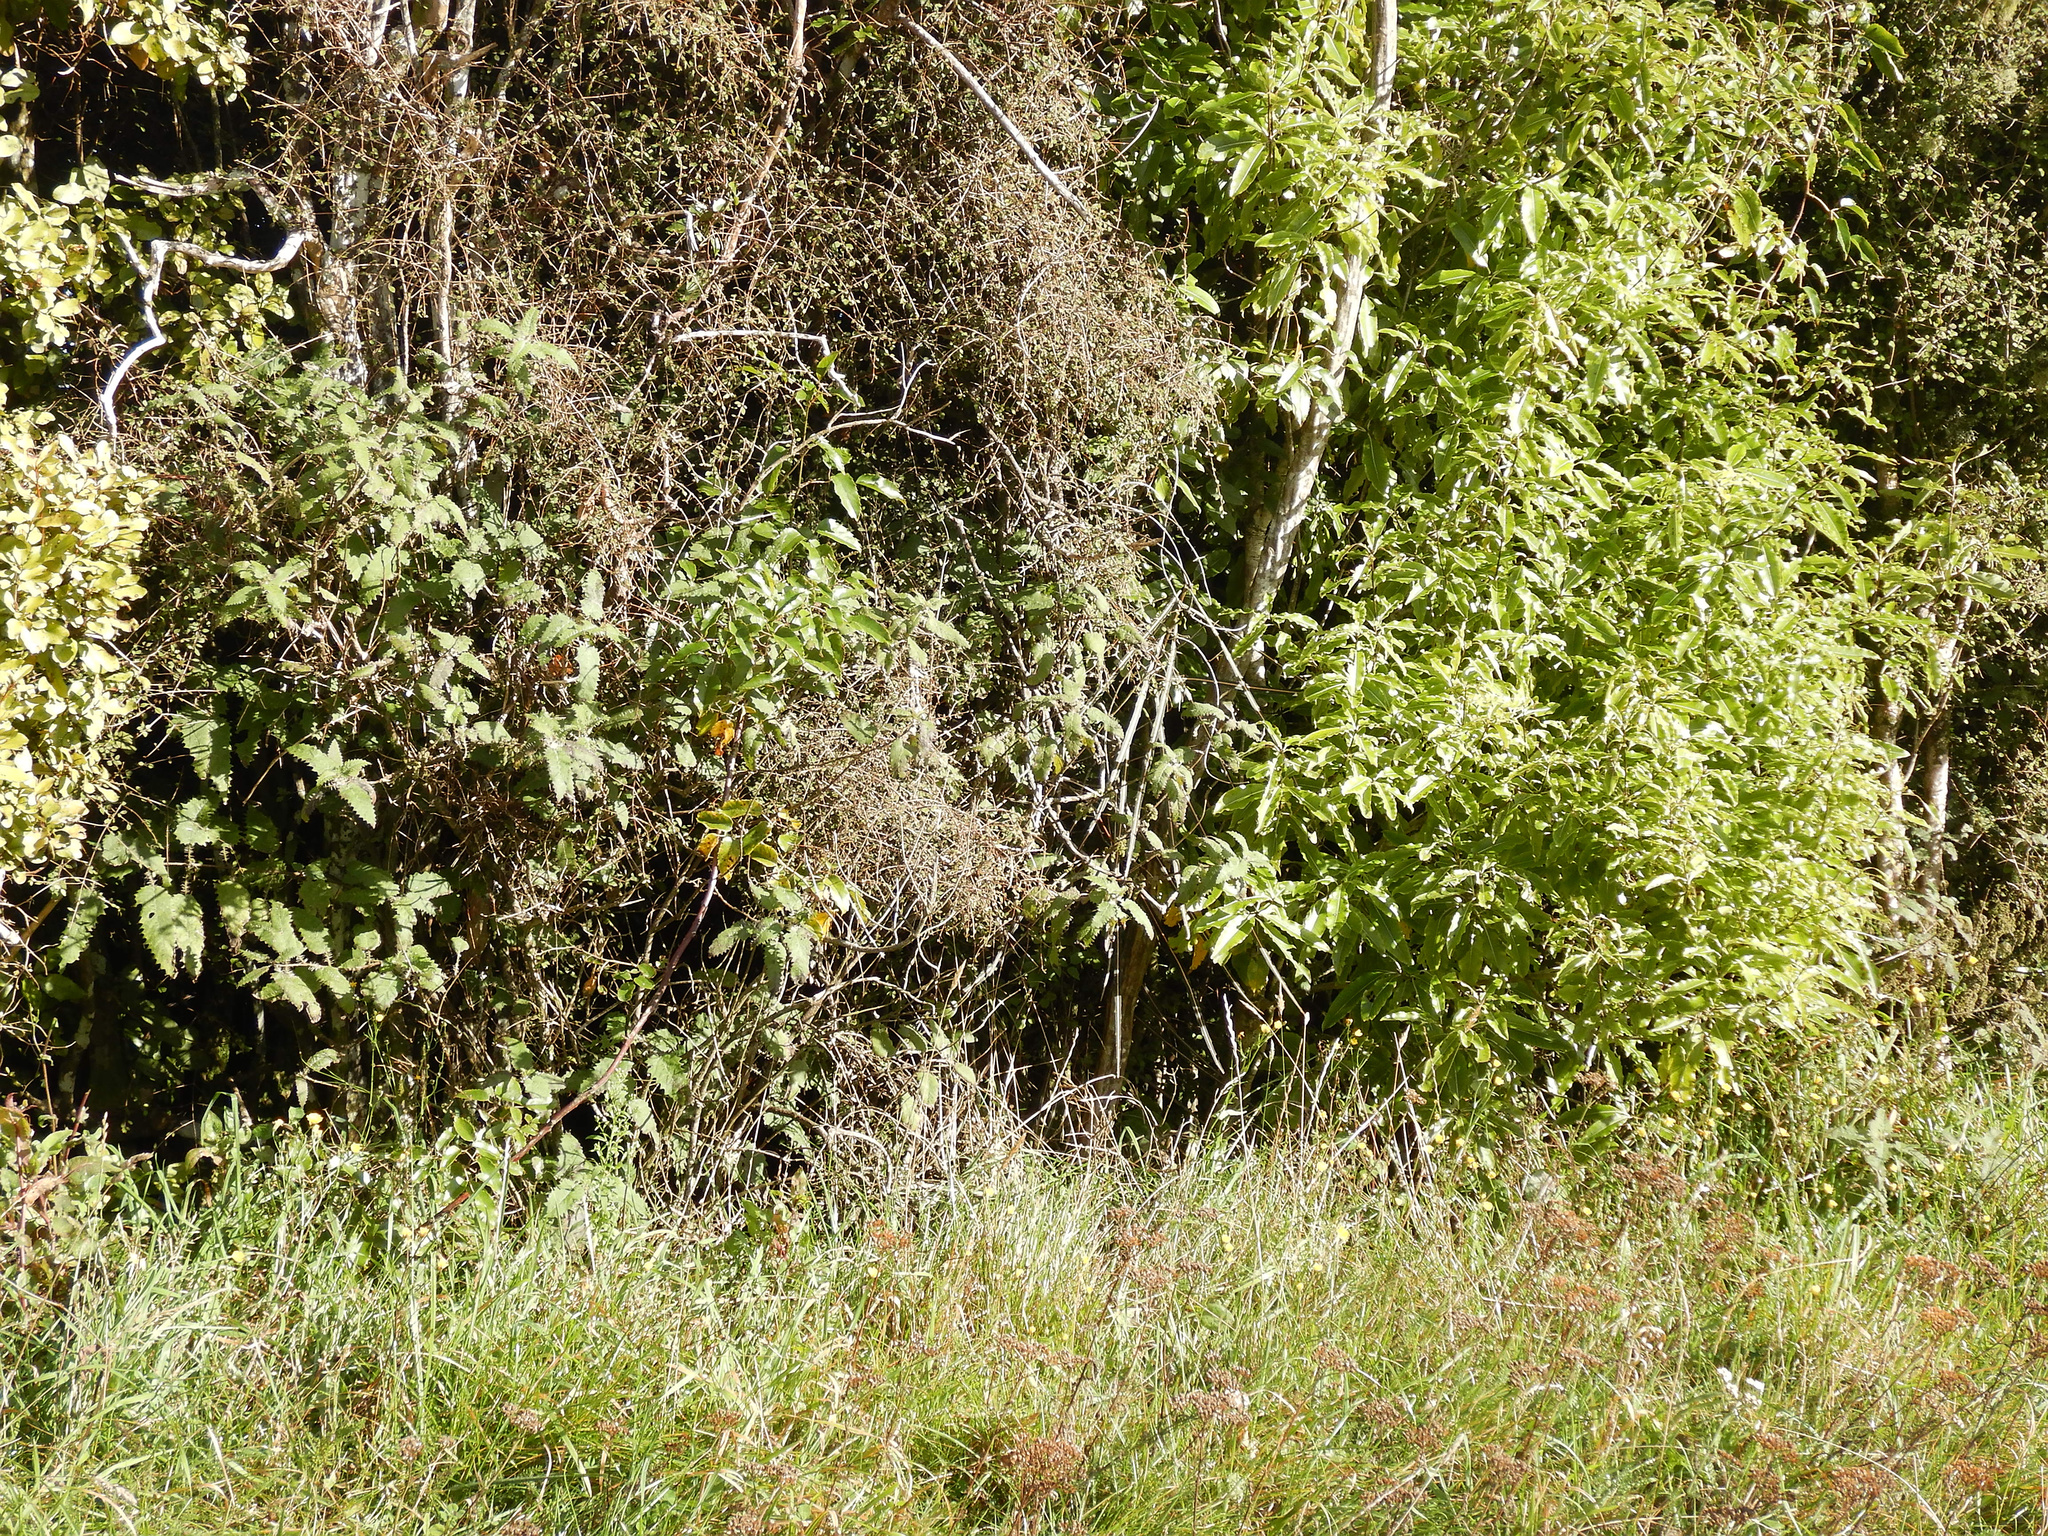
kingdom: Plantae
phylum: Tracheophyta
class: Magnoliopsida
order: Rosales
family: Urticaceae
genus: Urtica
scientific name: Urtica ferox
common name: Tree nettle
